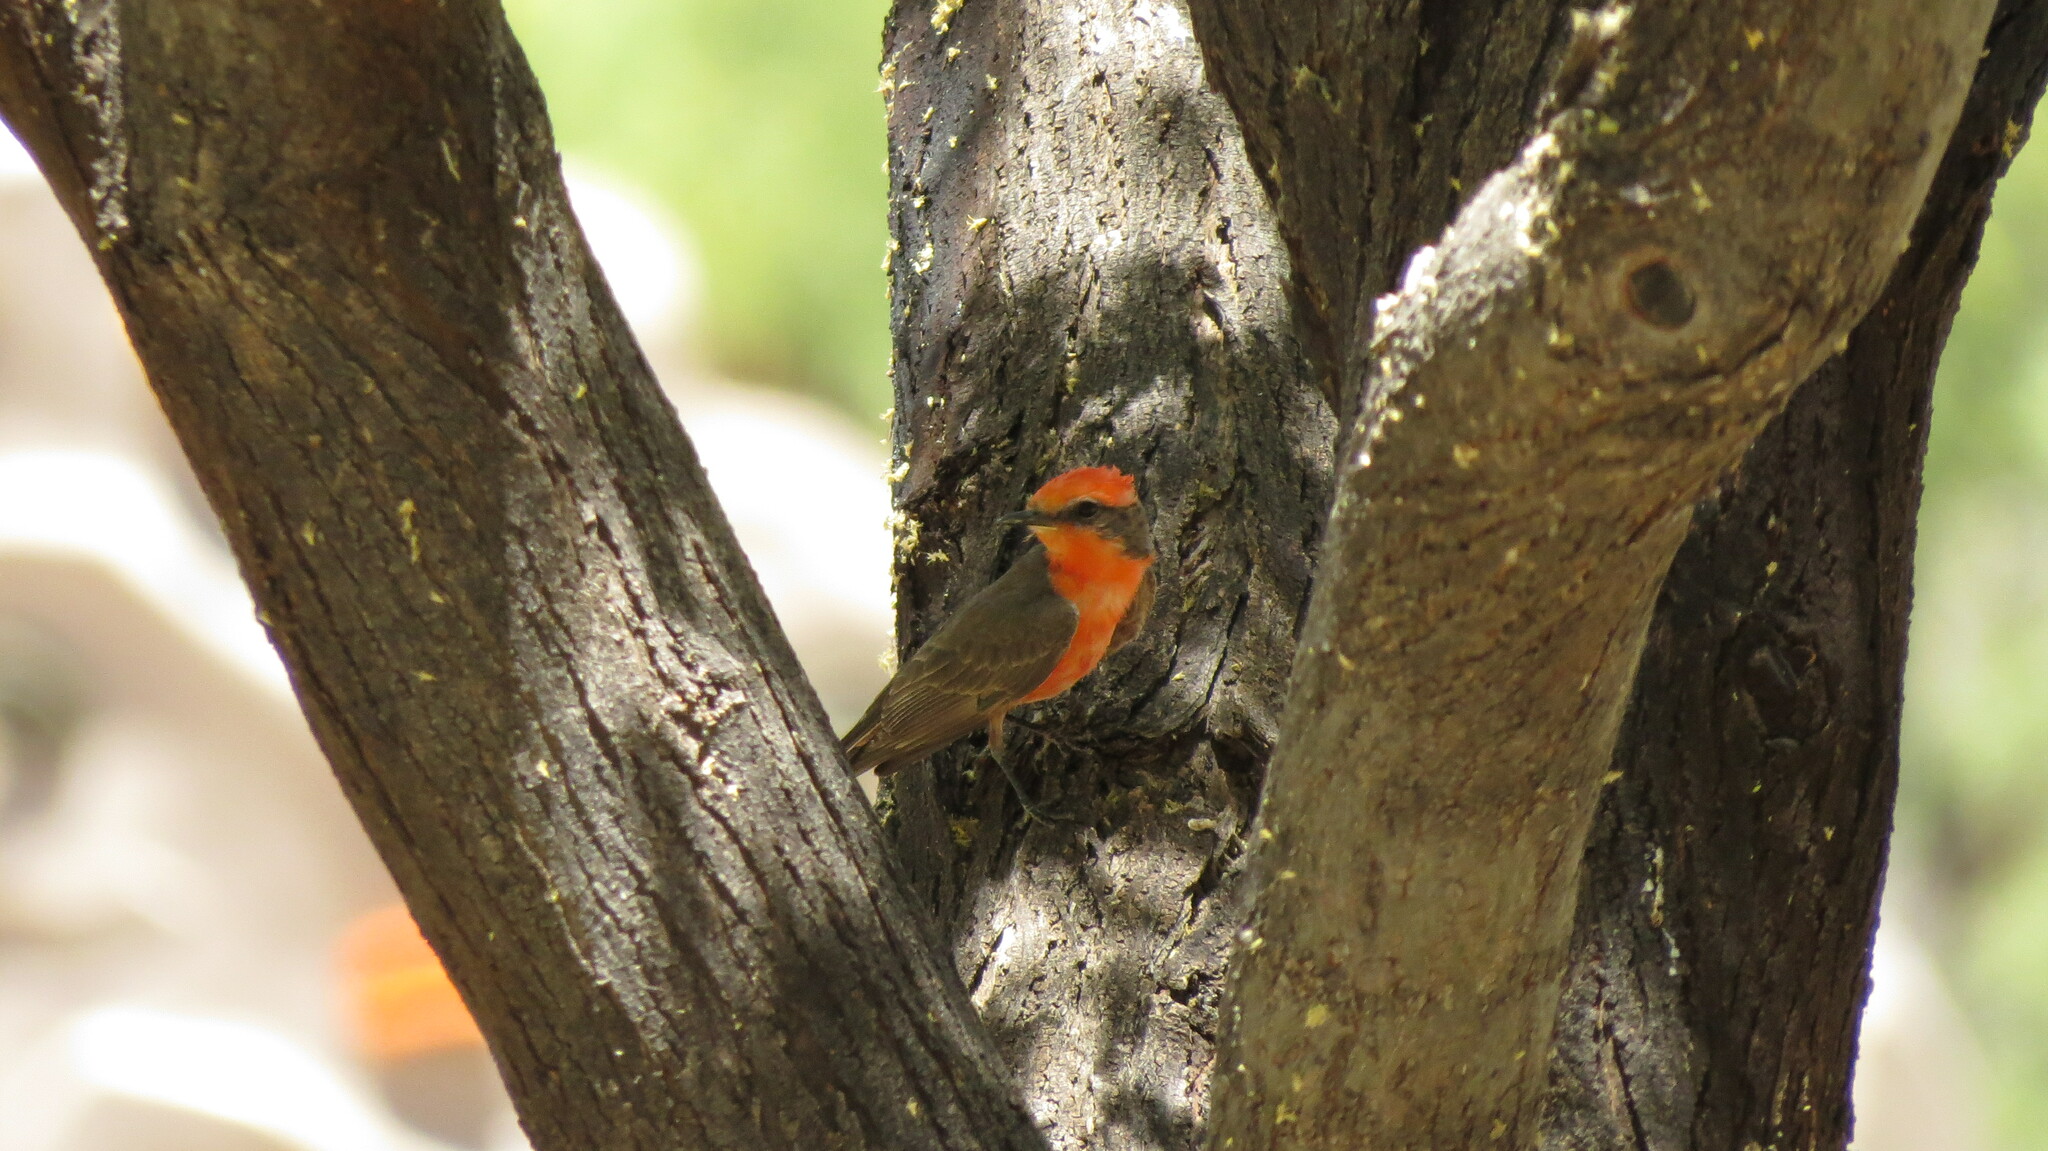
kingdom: Animalia
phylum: Chordata
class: Aves
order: Passeriformes
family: Tyrannidae
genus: Pyrocephalus
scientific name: Pyrocephalus rubinus
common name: Vermilion flycatcher
